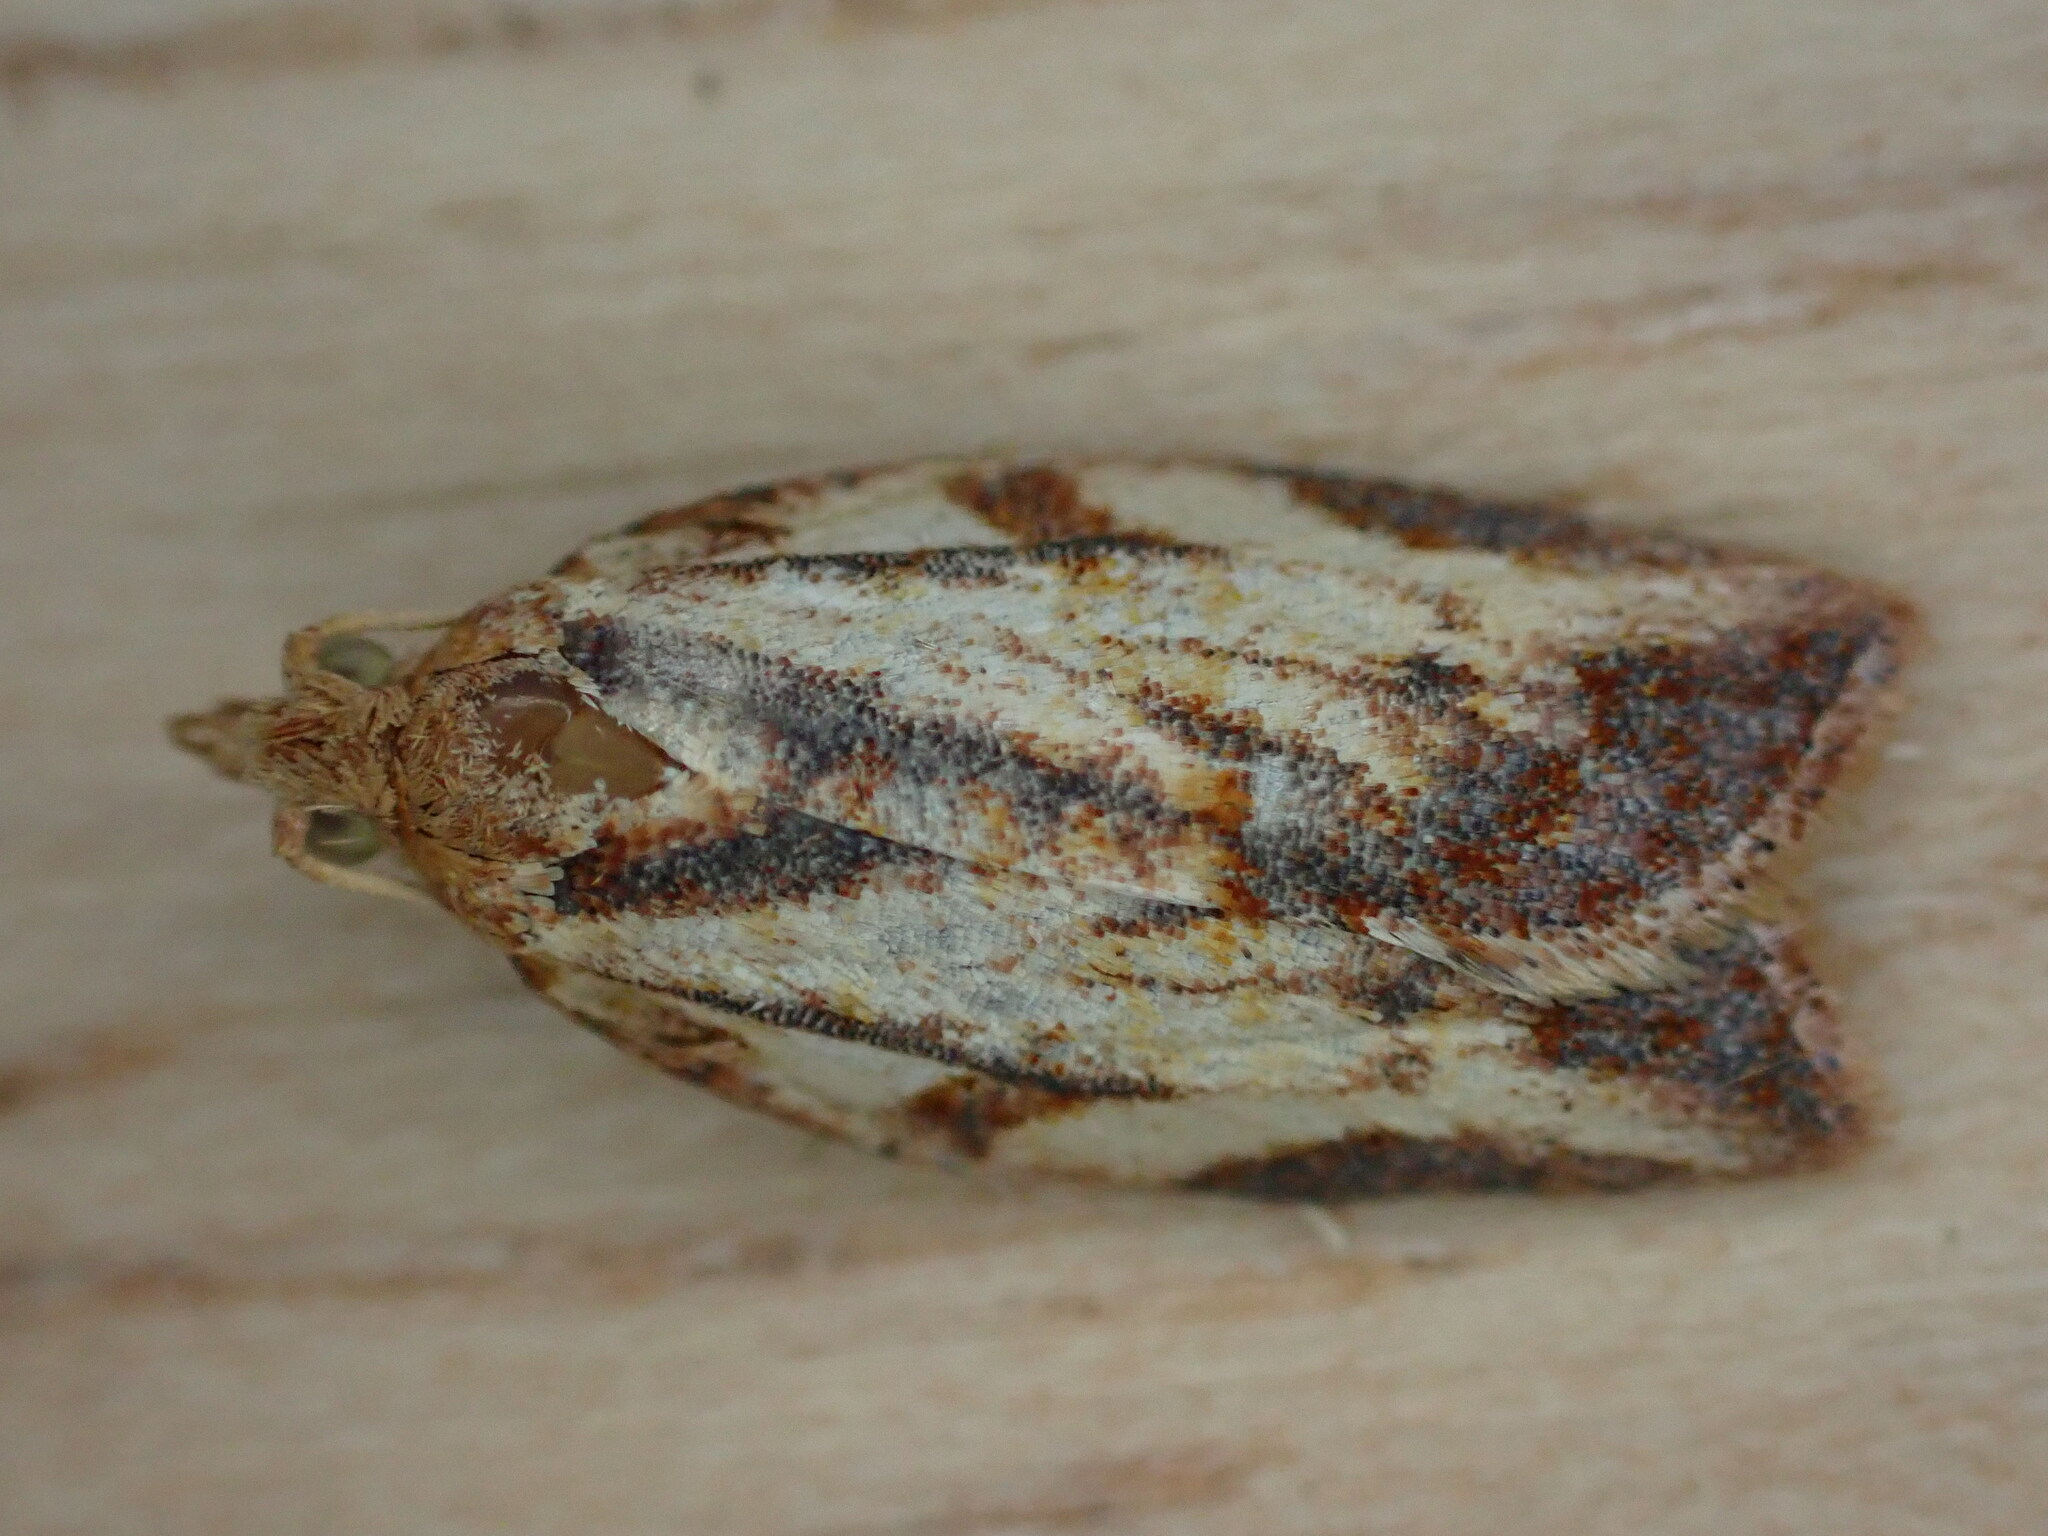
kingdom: Animalia
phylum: Arthropoda
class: Insecta
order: Lepidoptera
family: Tortricidae
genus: Epiphyas
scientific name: Epiphyas postvittana
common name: Light brown apple moth
